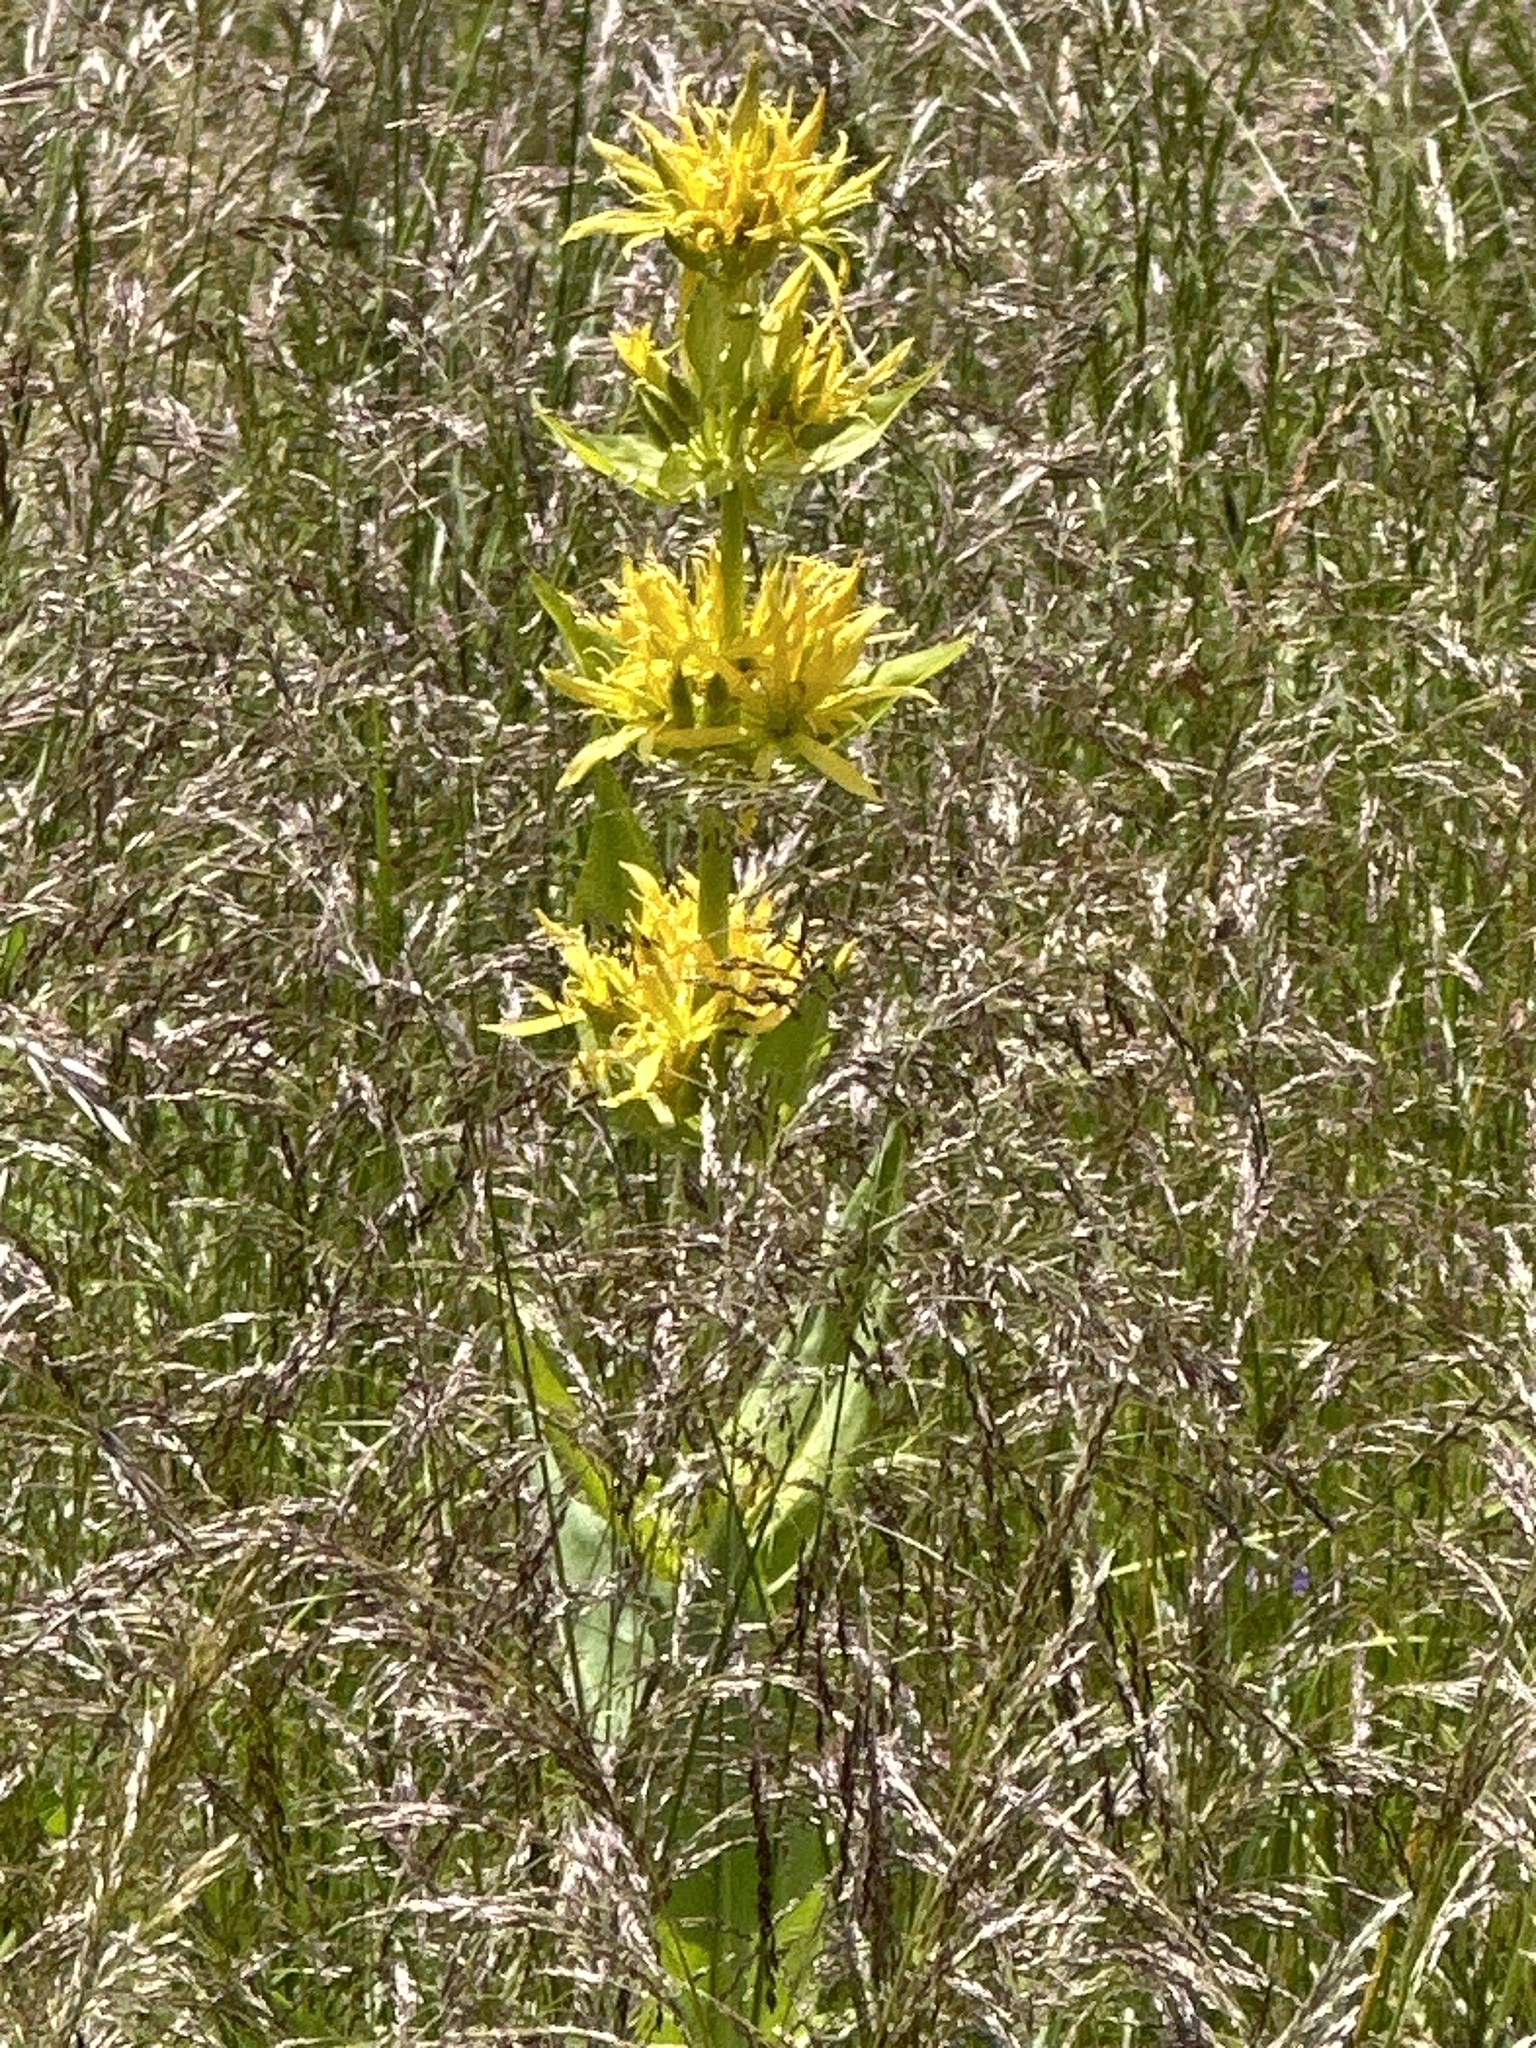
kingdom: Plantae
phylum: Tracheophyta
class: Magnoliopsida
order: Gentianales
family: Gentianaceae
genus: Gentiana
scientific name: Gentiana lutea
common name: Great yellow gentian
